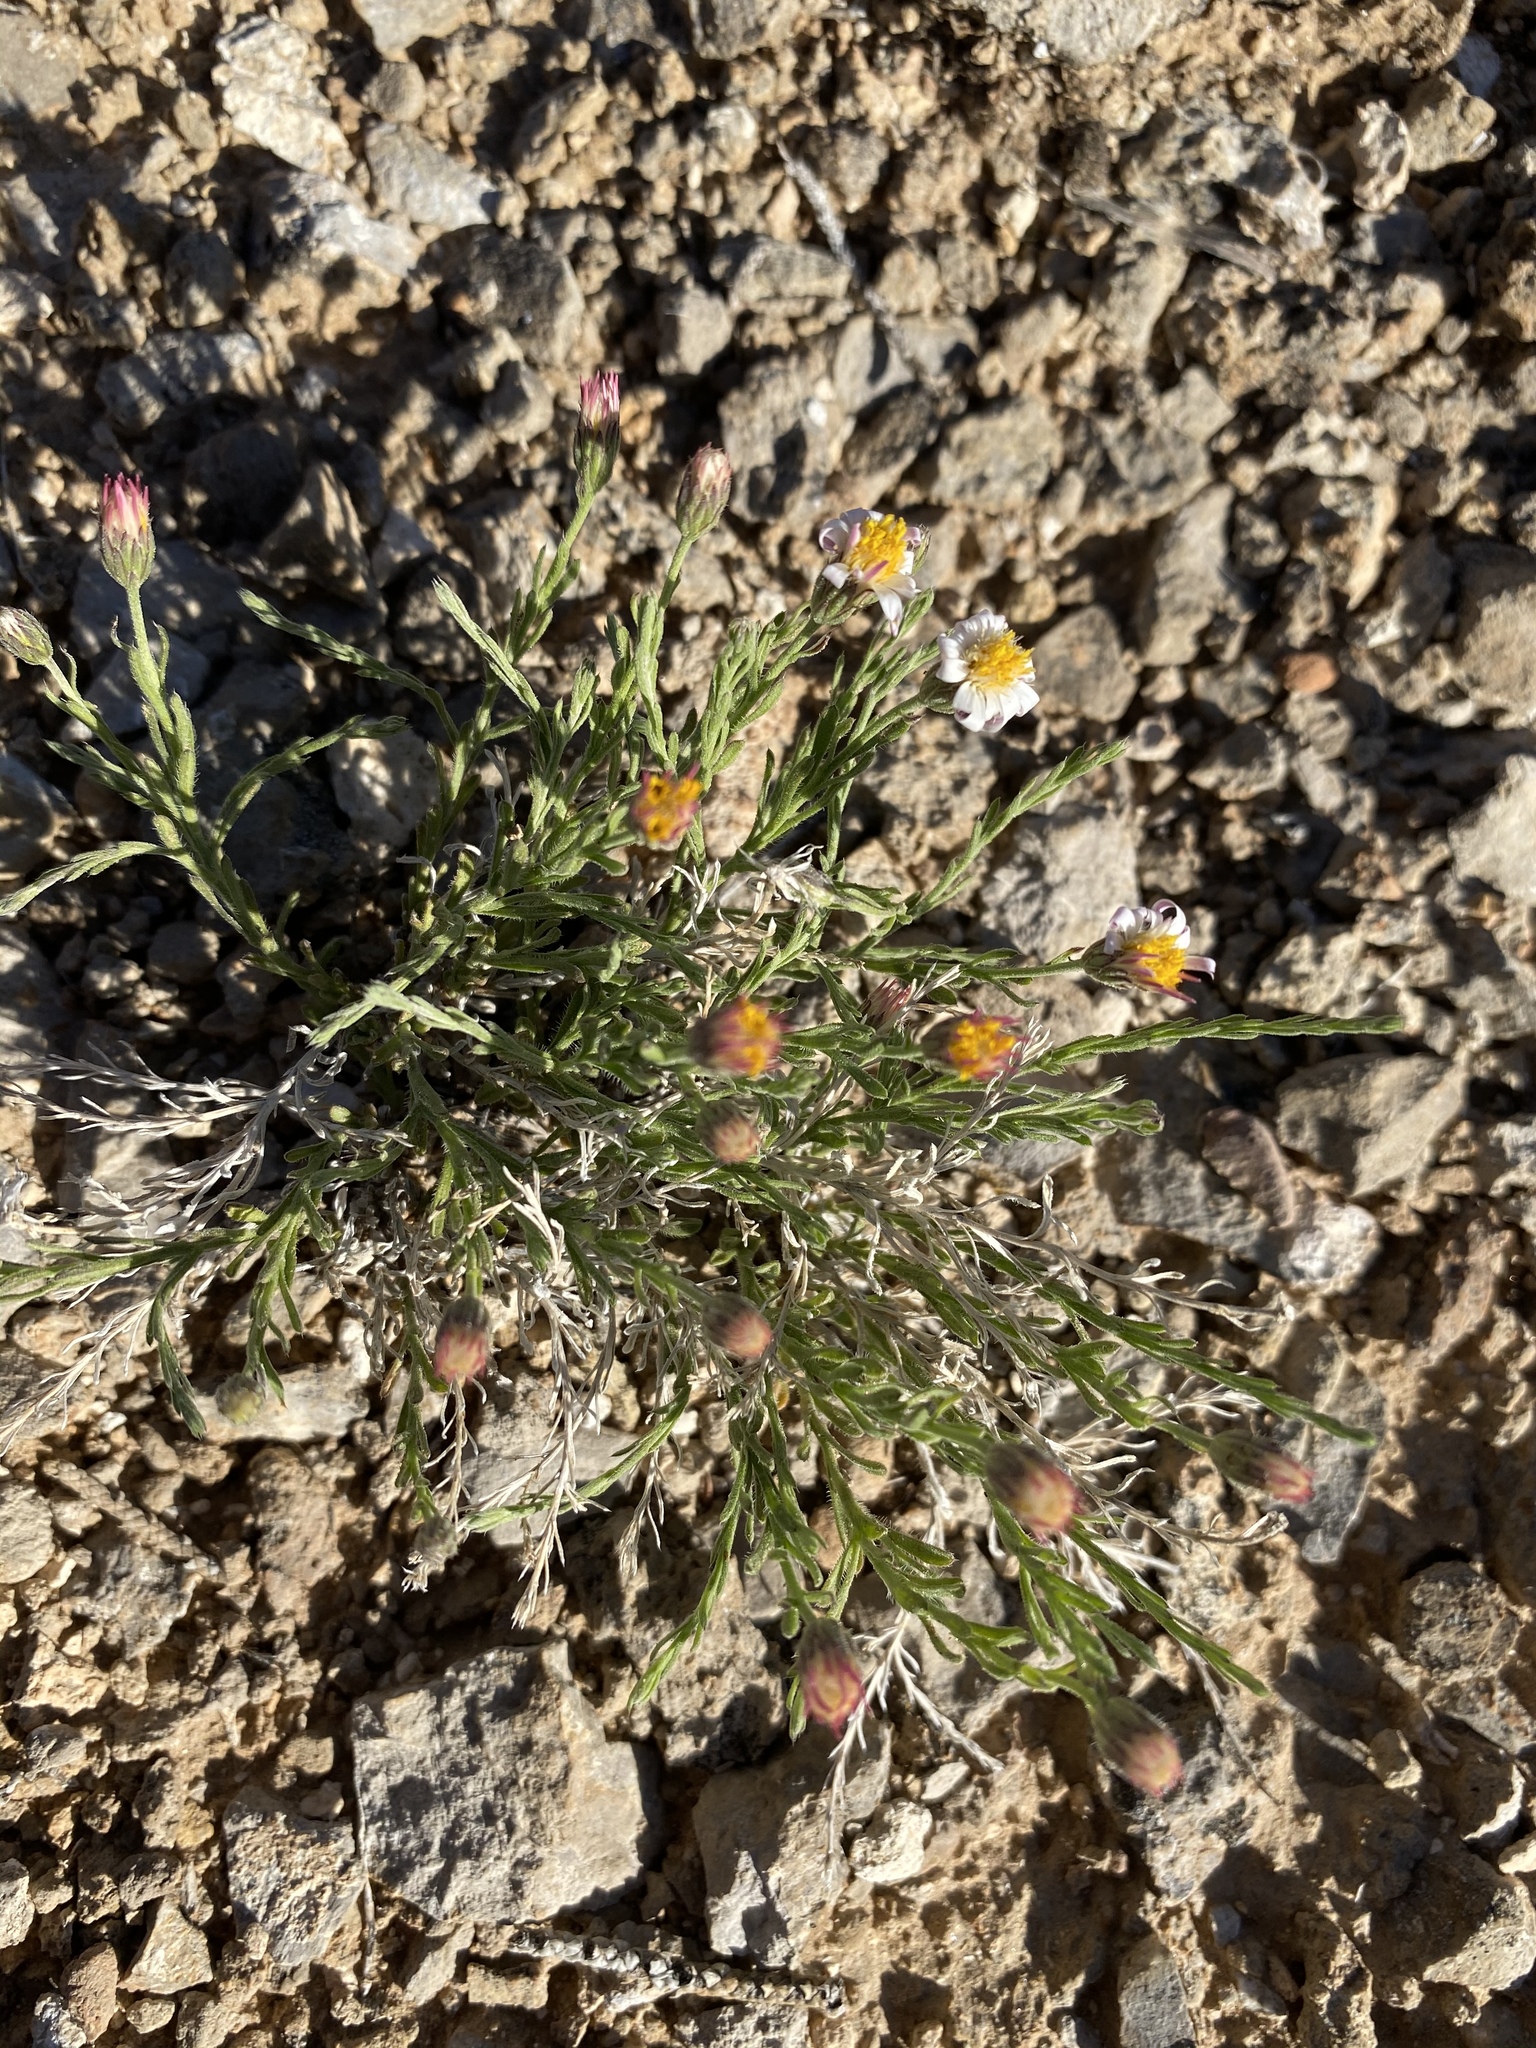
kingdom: Plantae
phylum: Tracheophyta
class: Magnoliopsida
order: Asterales
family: Asteraceae
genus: Chaetopappa
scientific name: Chaetopappa ericoides
